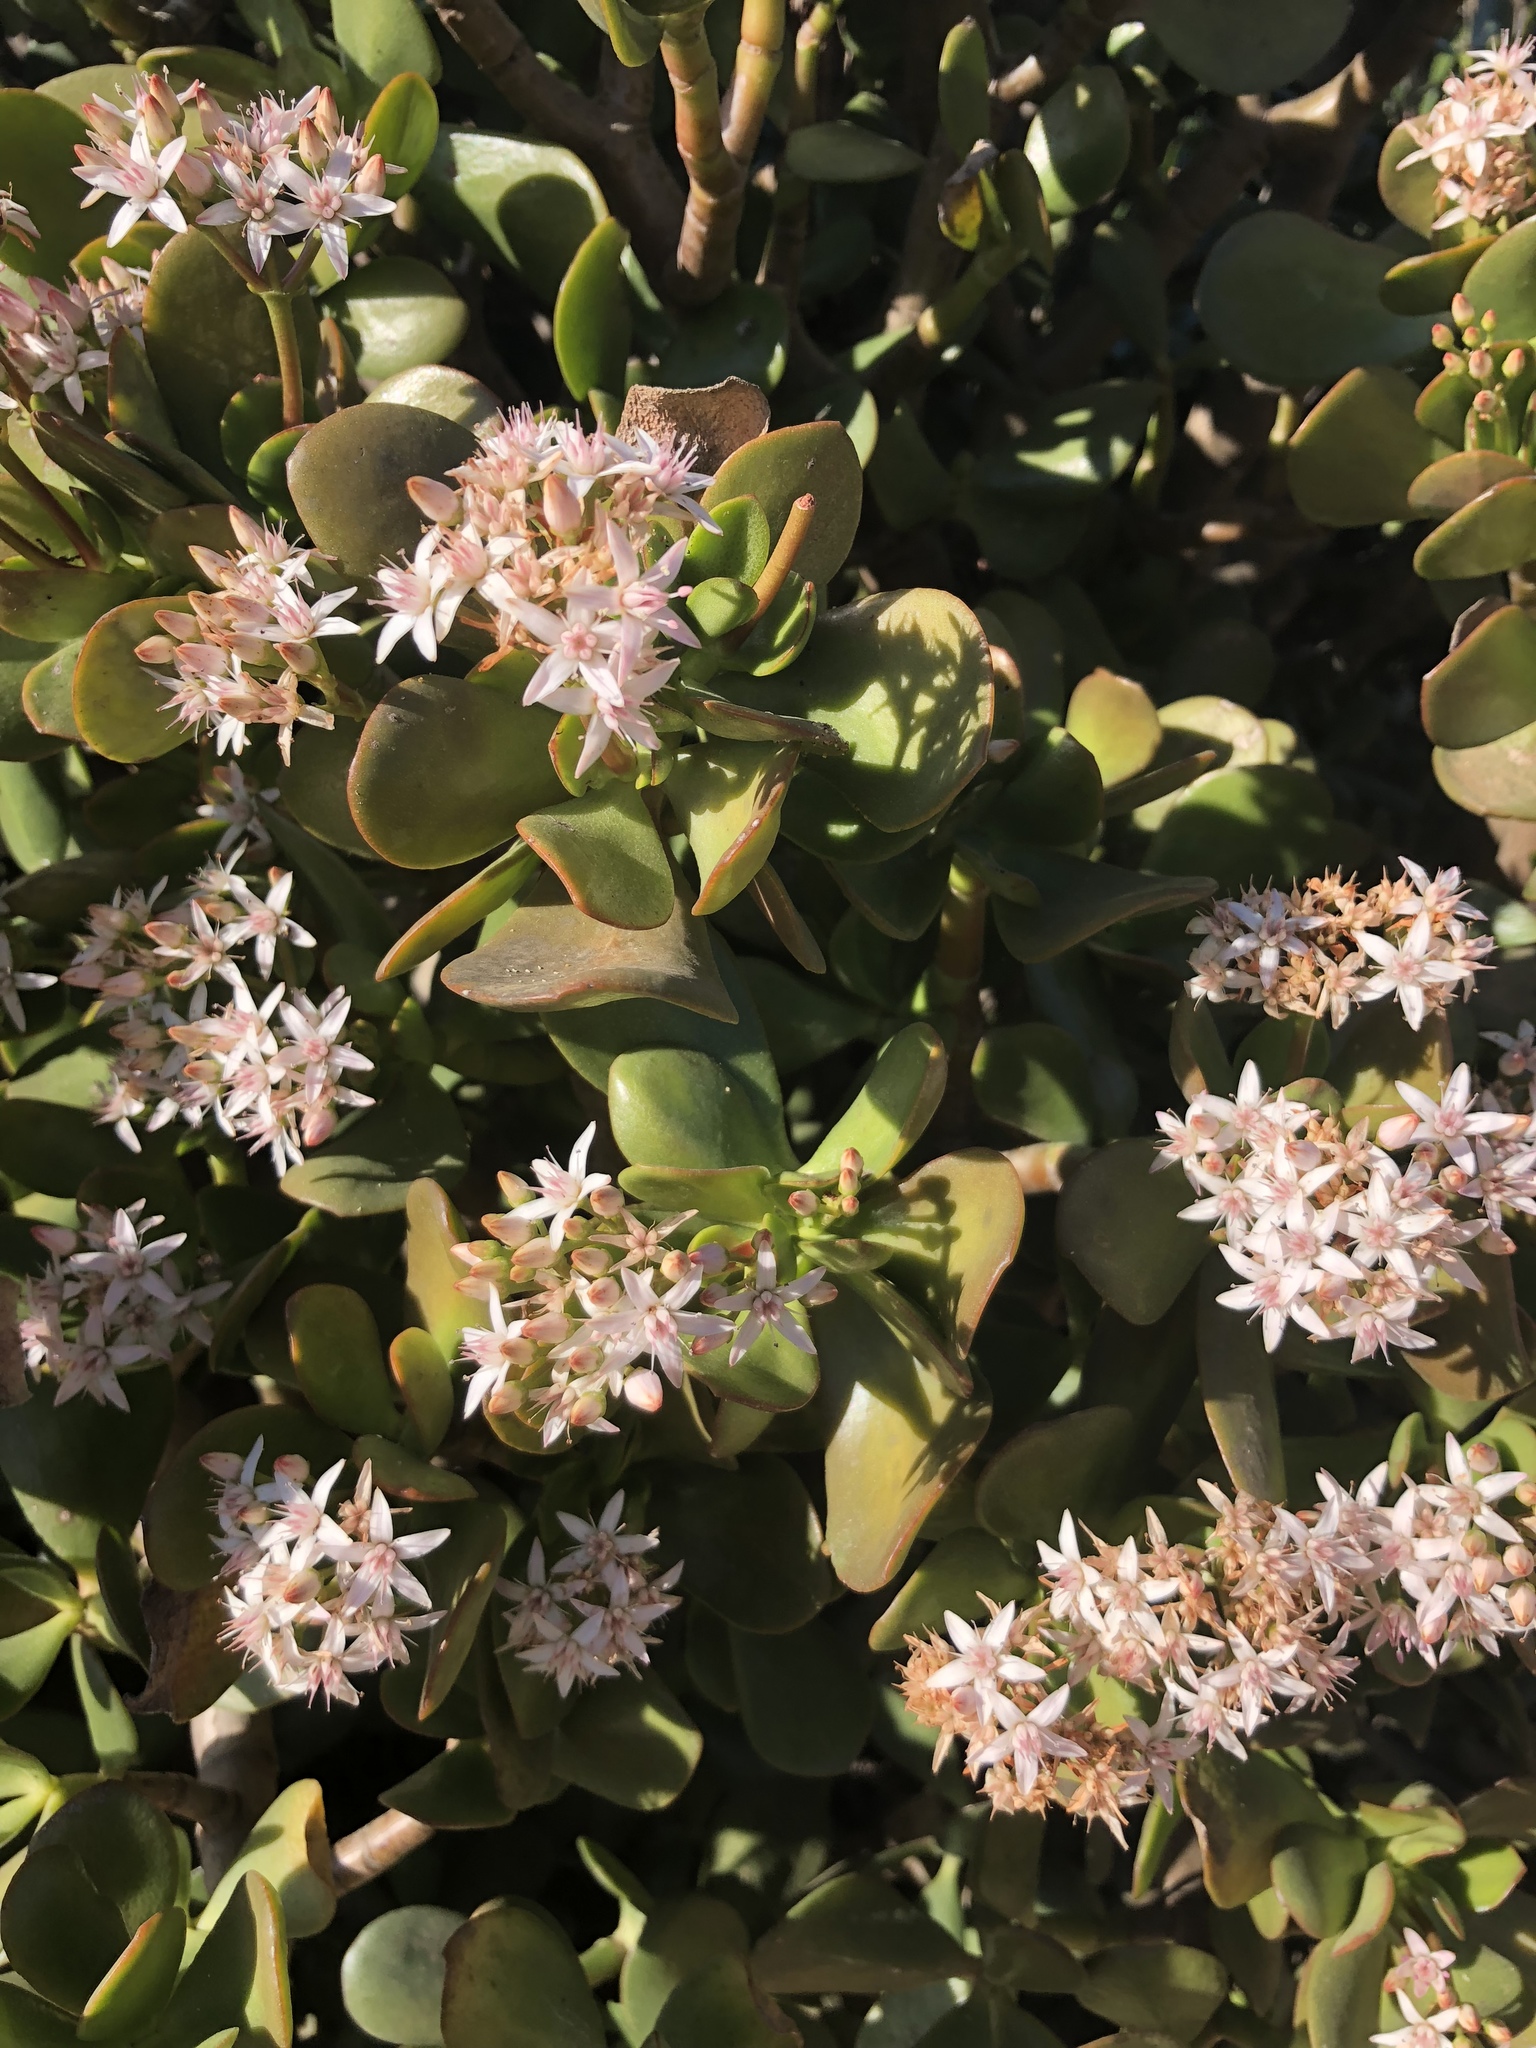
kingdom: Plantae
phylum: Tracheophyta
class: Magnoliopsida
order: Saxifragales
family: Crassulaceae
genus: Crassula
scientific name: Crassula ovata
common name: Jade plant
